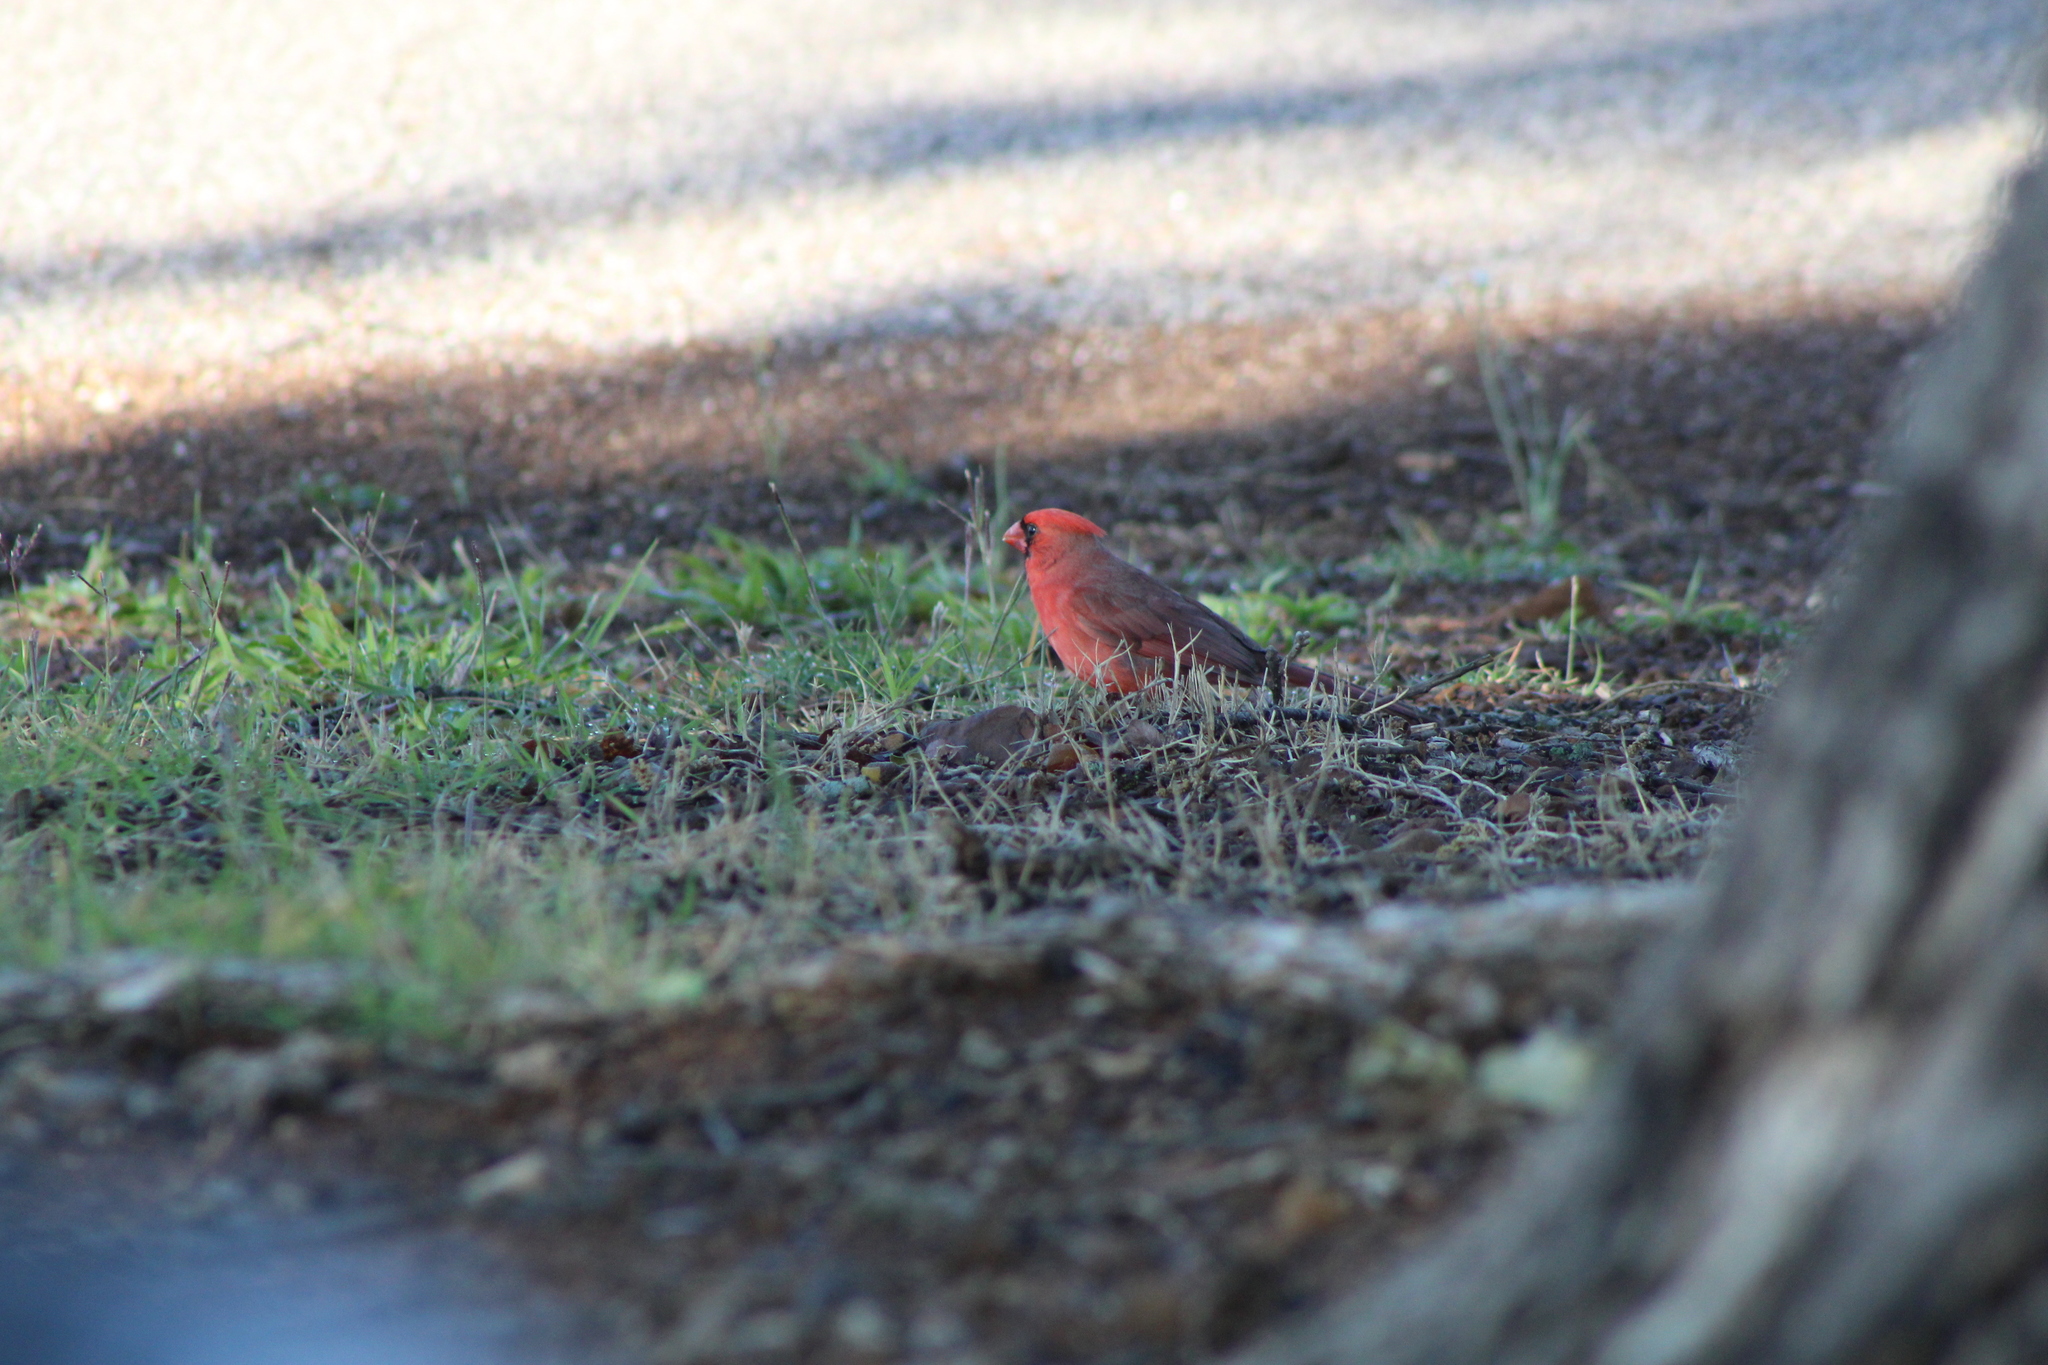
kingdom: Animalia
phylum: Chordata
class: Aves
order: Passeriformes
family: Cardinalidae
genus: Cardinalis
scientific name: Cardinalis cardinalis
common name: Northern cardinal
